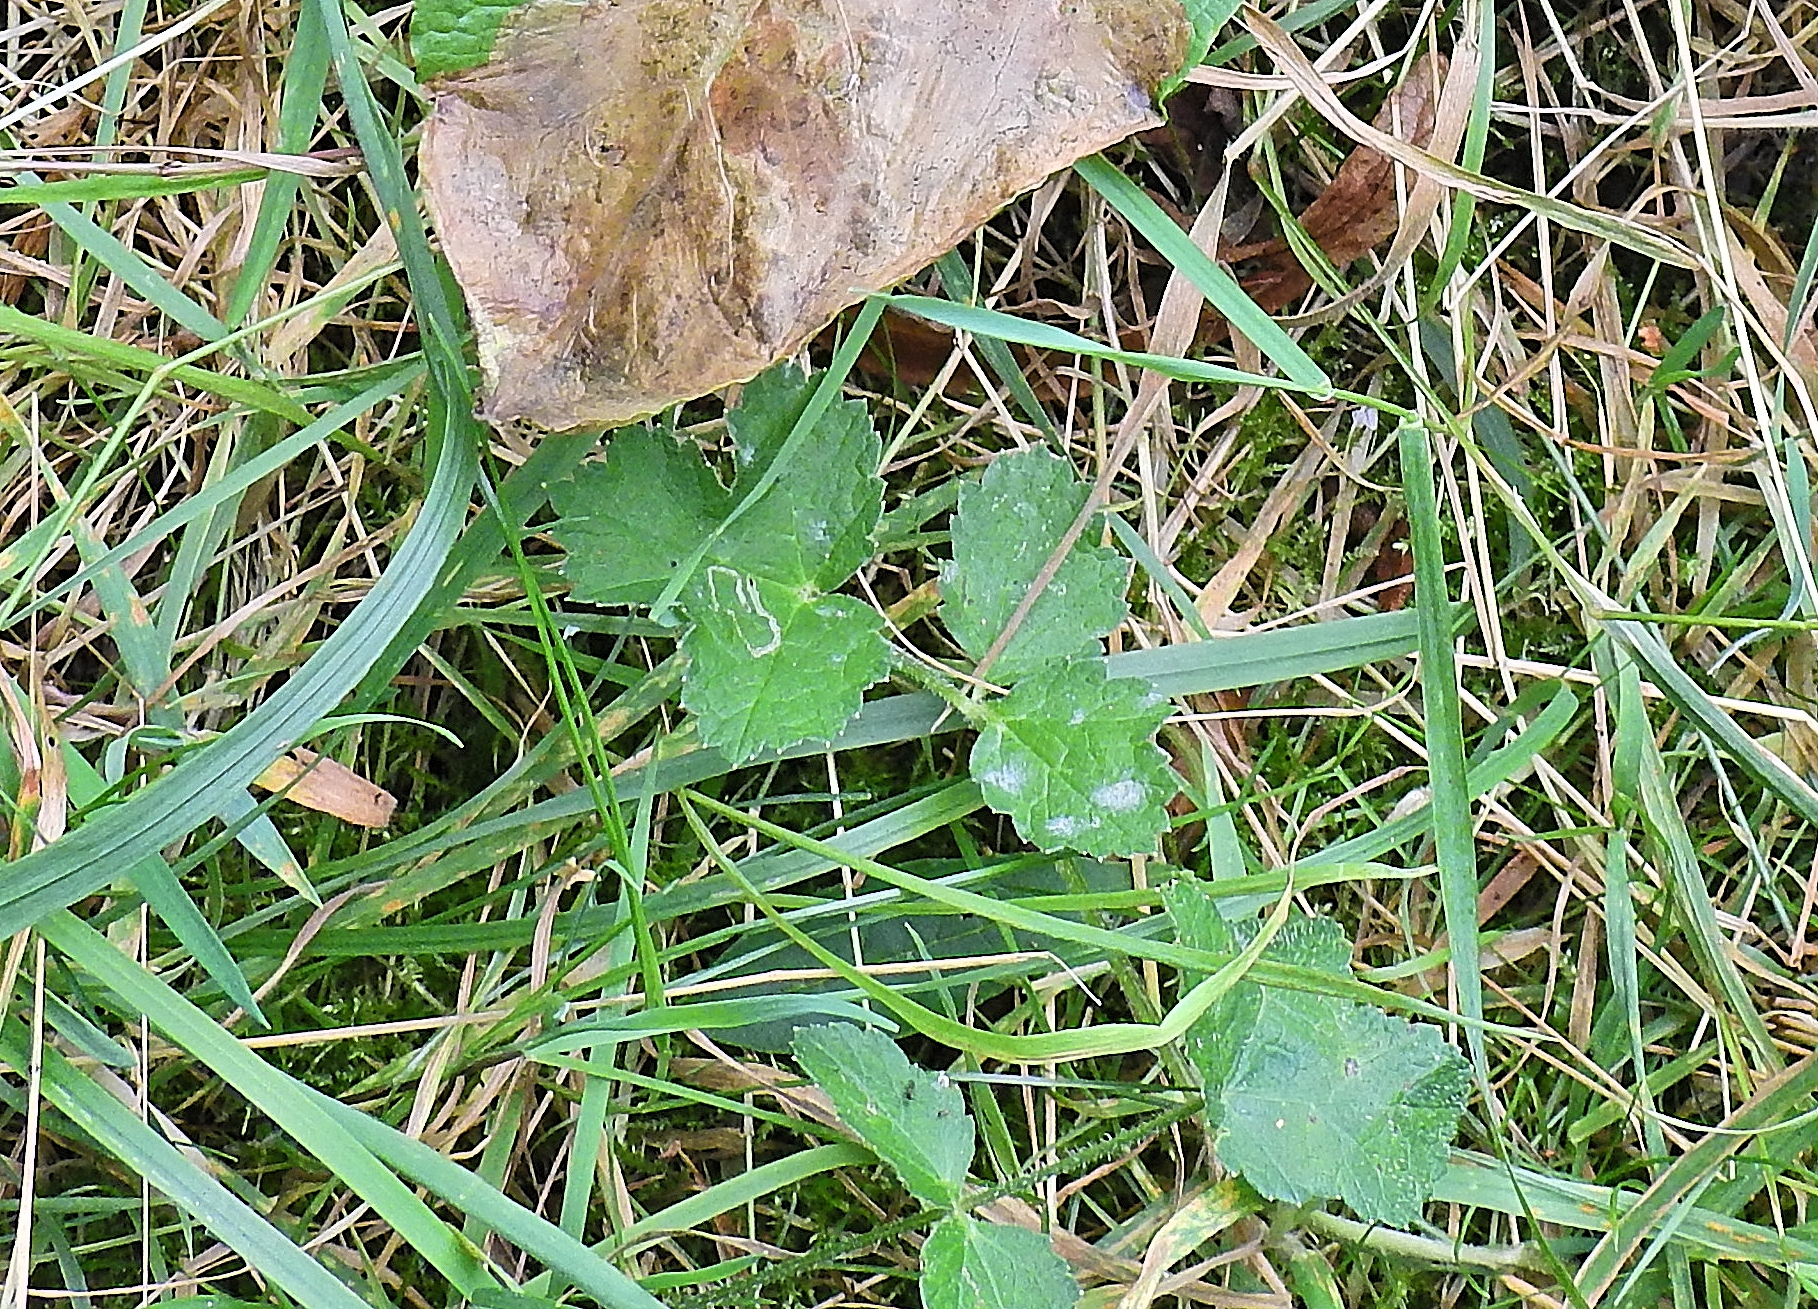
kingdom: Plantae
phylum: Tracheophyta
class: Magnoliopsida
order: Apiales
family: Apiaceae
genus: Heracleum
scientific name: Heracleum sphondylium
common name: Hogweed
